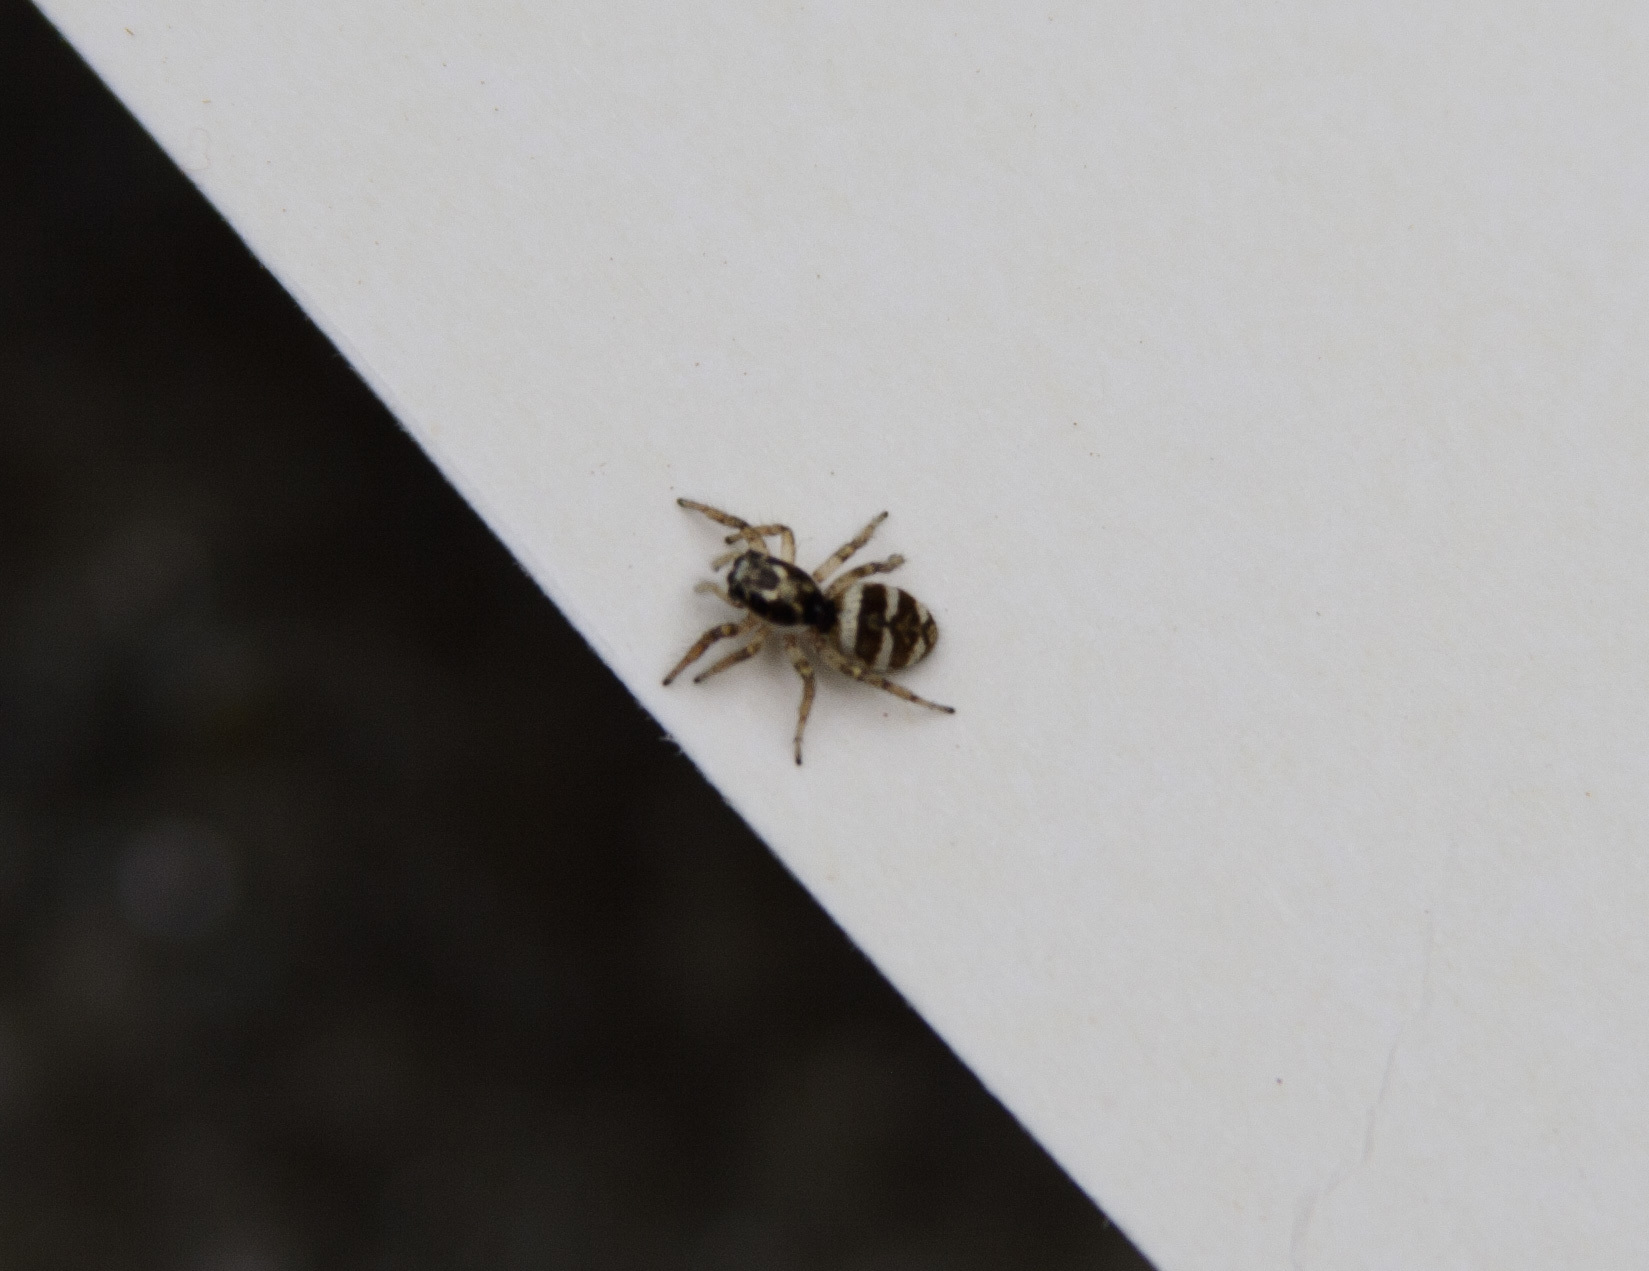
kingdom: Animalia
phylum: Arthropoda
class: Arachnida
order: Araneae
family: Salticidae
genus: Salticus
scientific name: Salticus scenicus
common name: Zebra jumper
